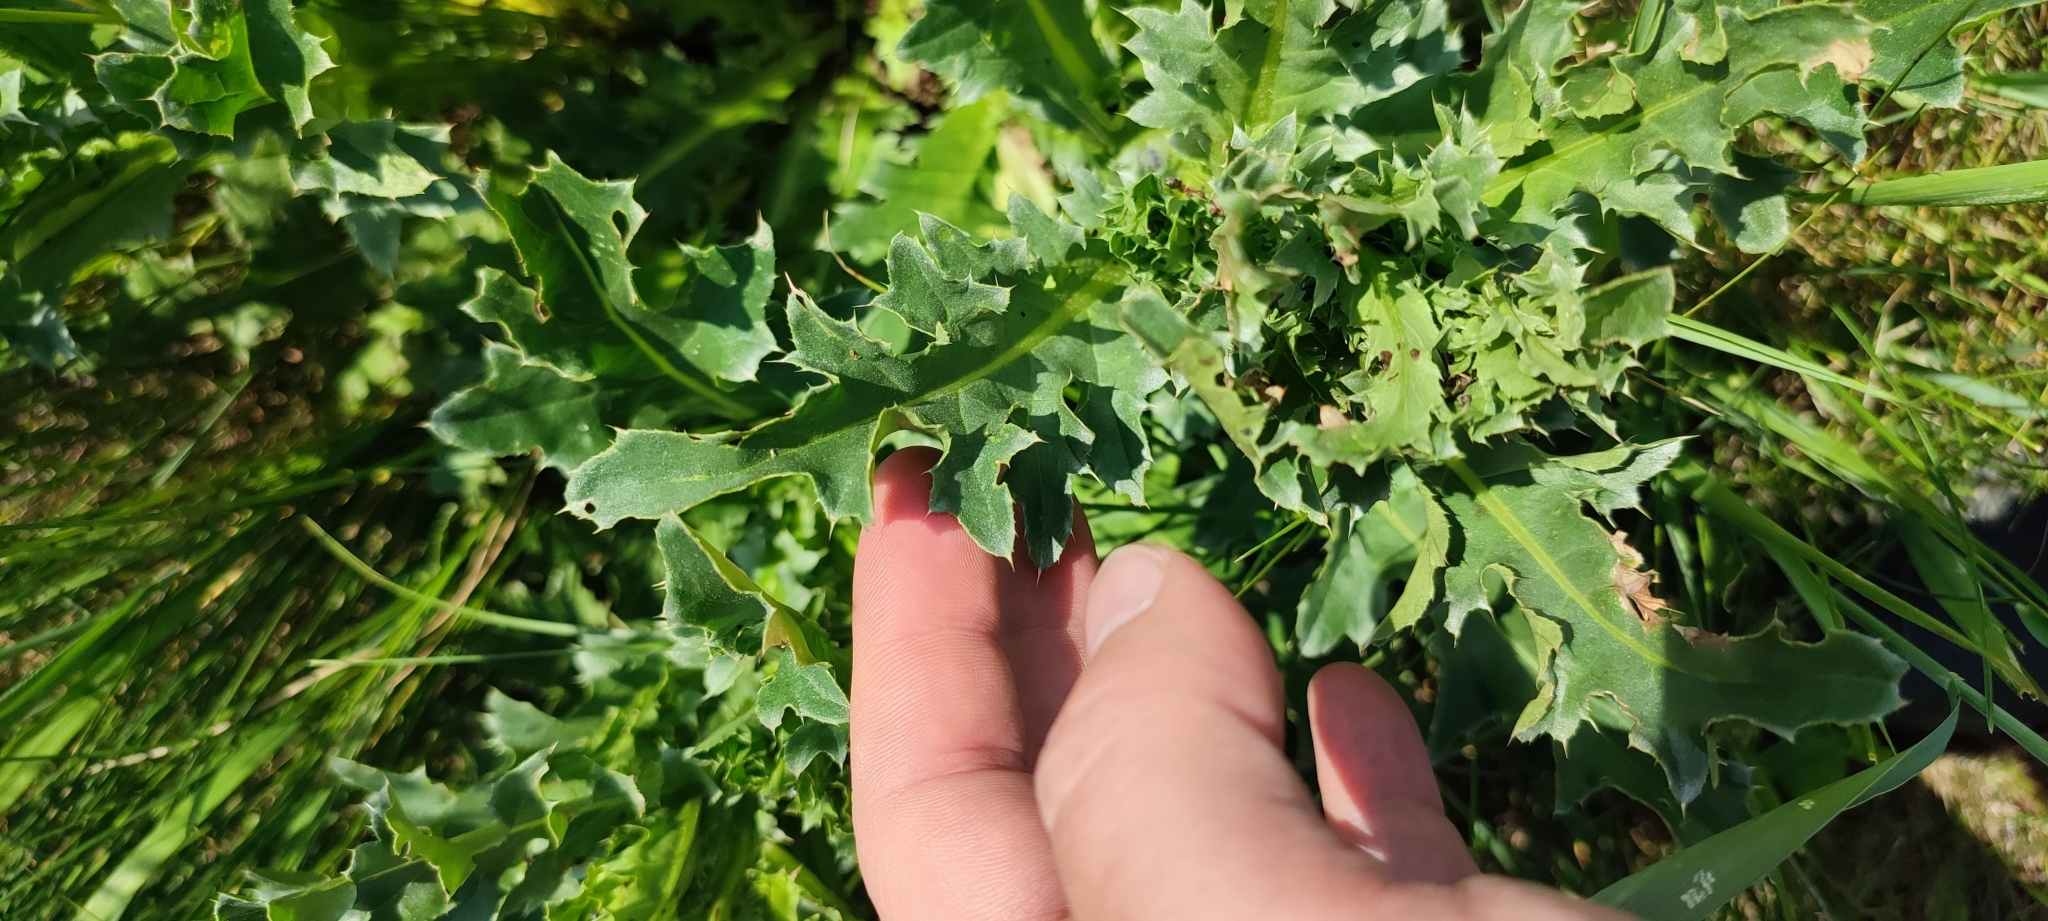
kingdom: Plantae
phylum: Tracheophyta
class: Magnoliopsida
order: Asterales
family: Asteraceae
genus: Carduus
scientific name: Carduus nutans
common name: Musk thistle
